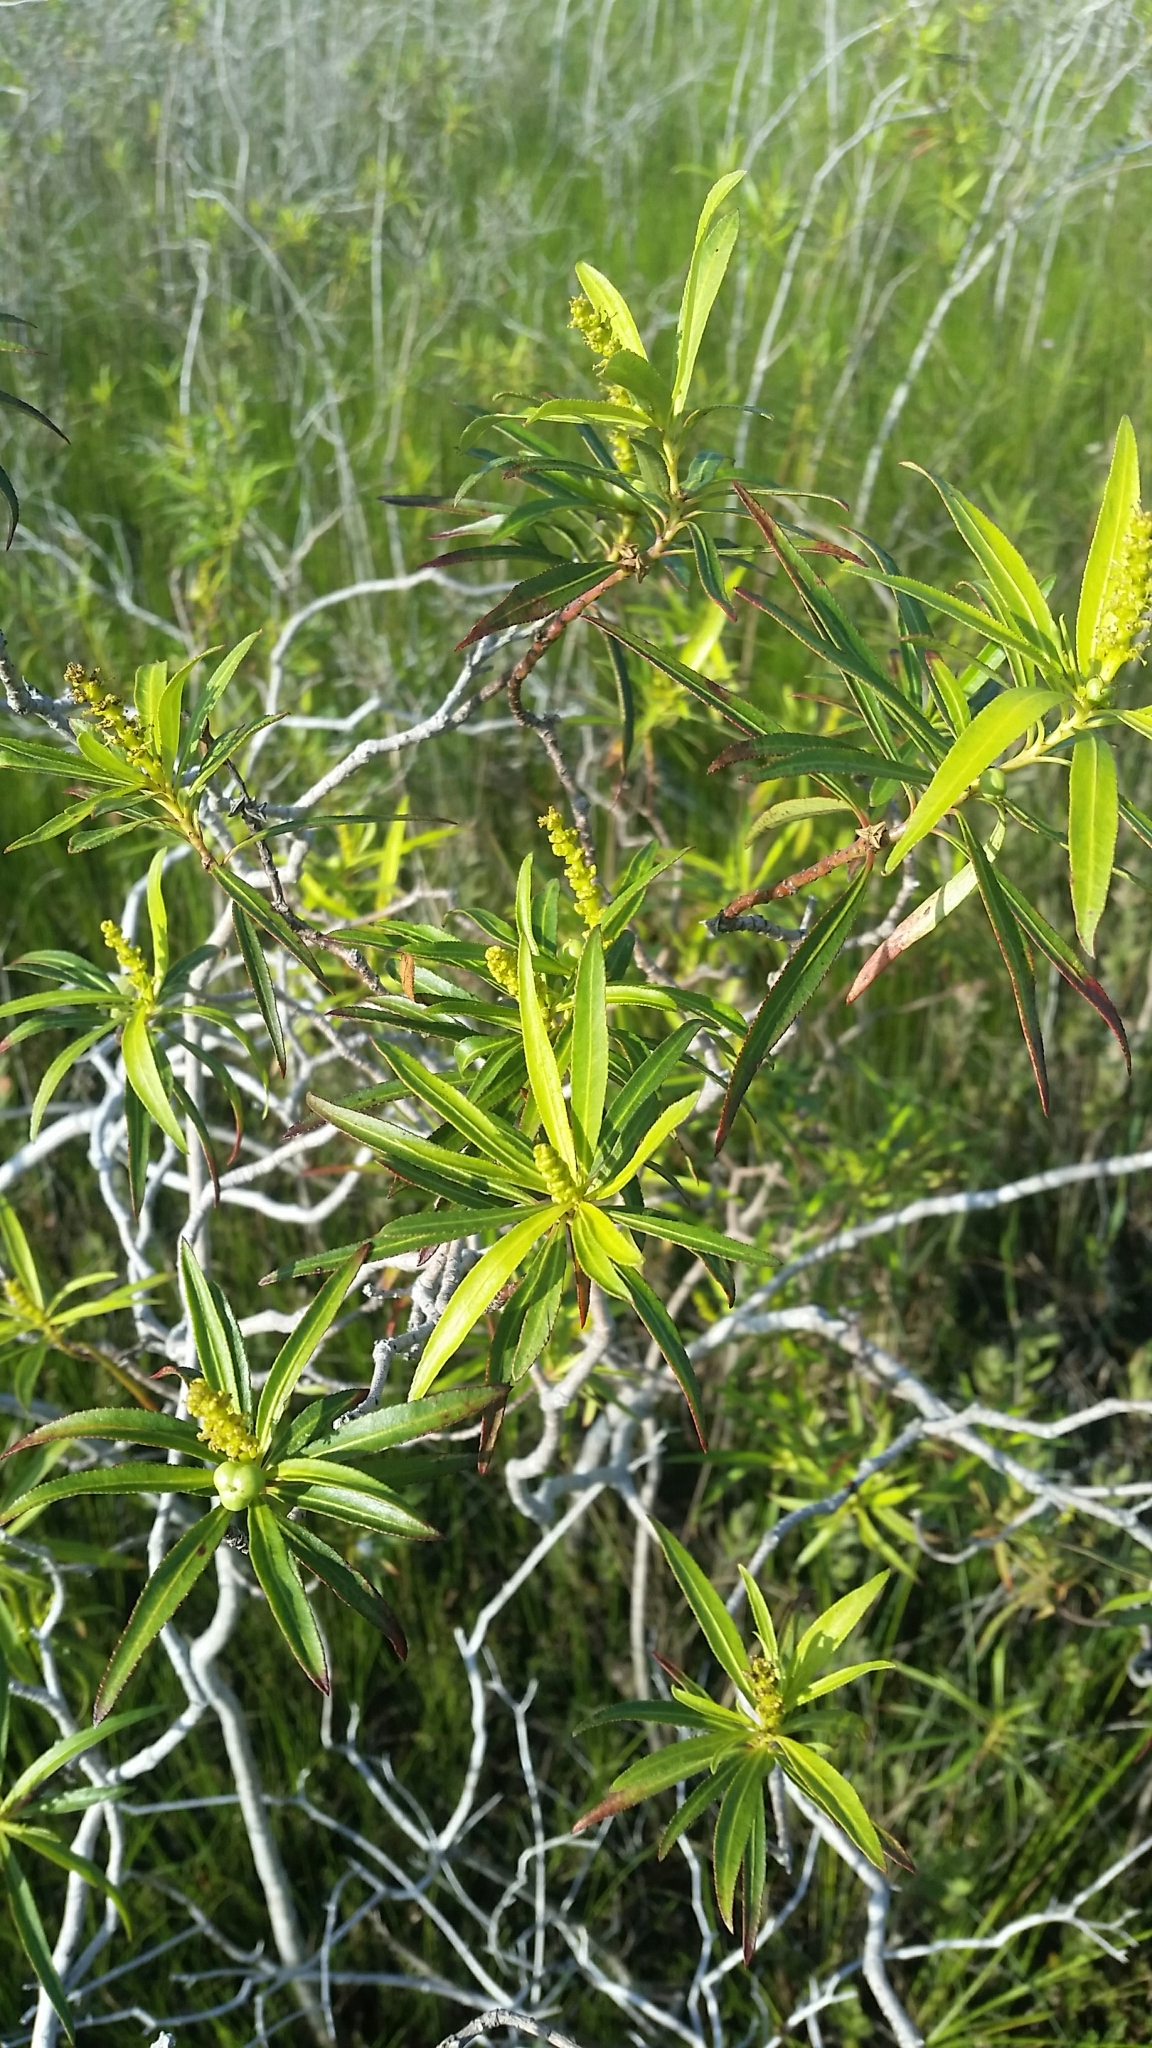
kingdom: Plantae
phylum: Tracheophyta
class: Magnoliopsida
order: Malpighiales
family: Euphorbiaceae
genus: Stillingia
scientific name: Stillingia aquatica
